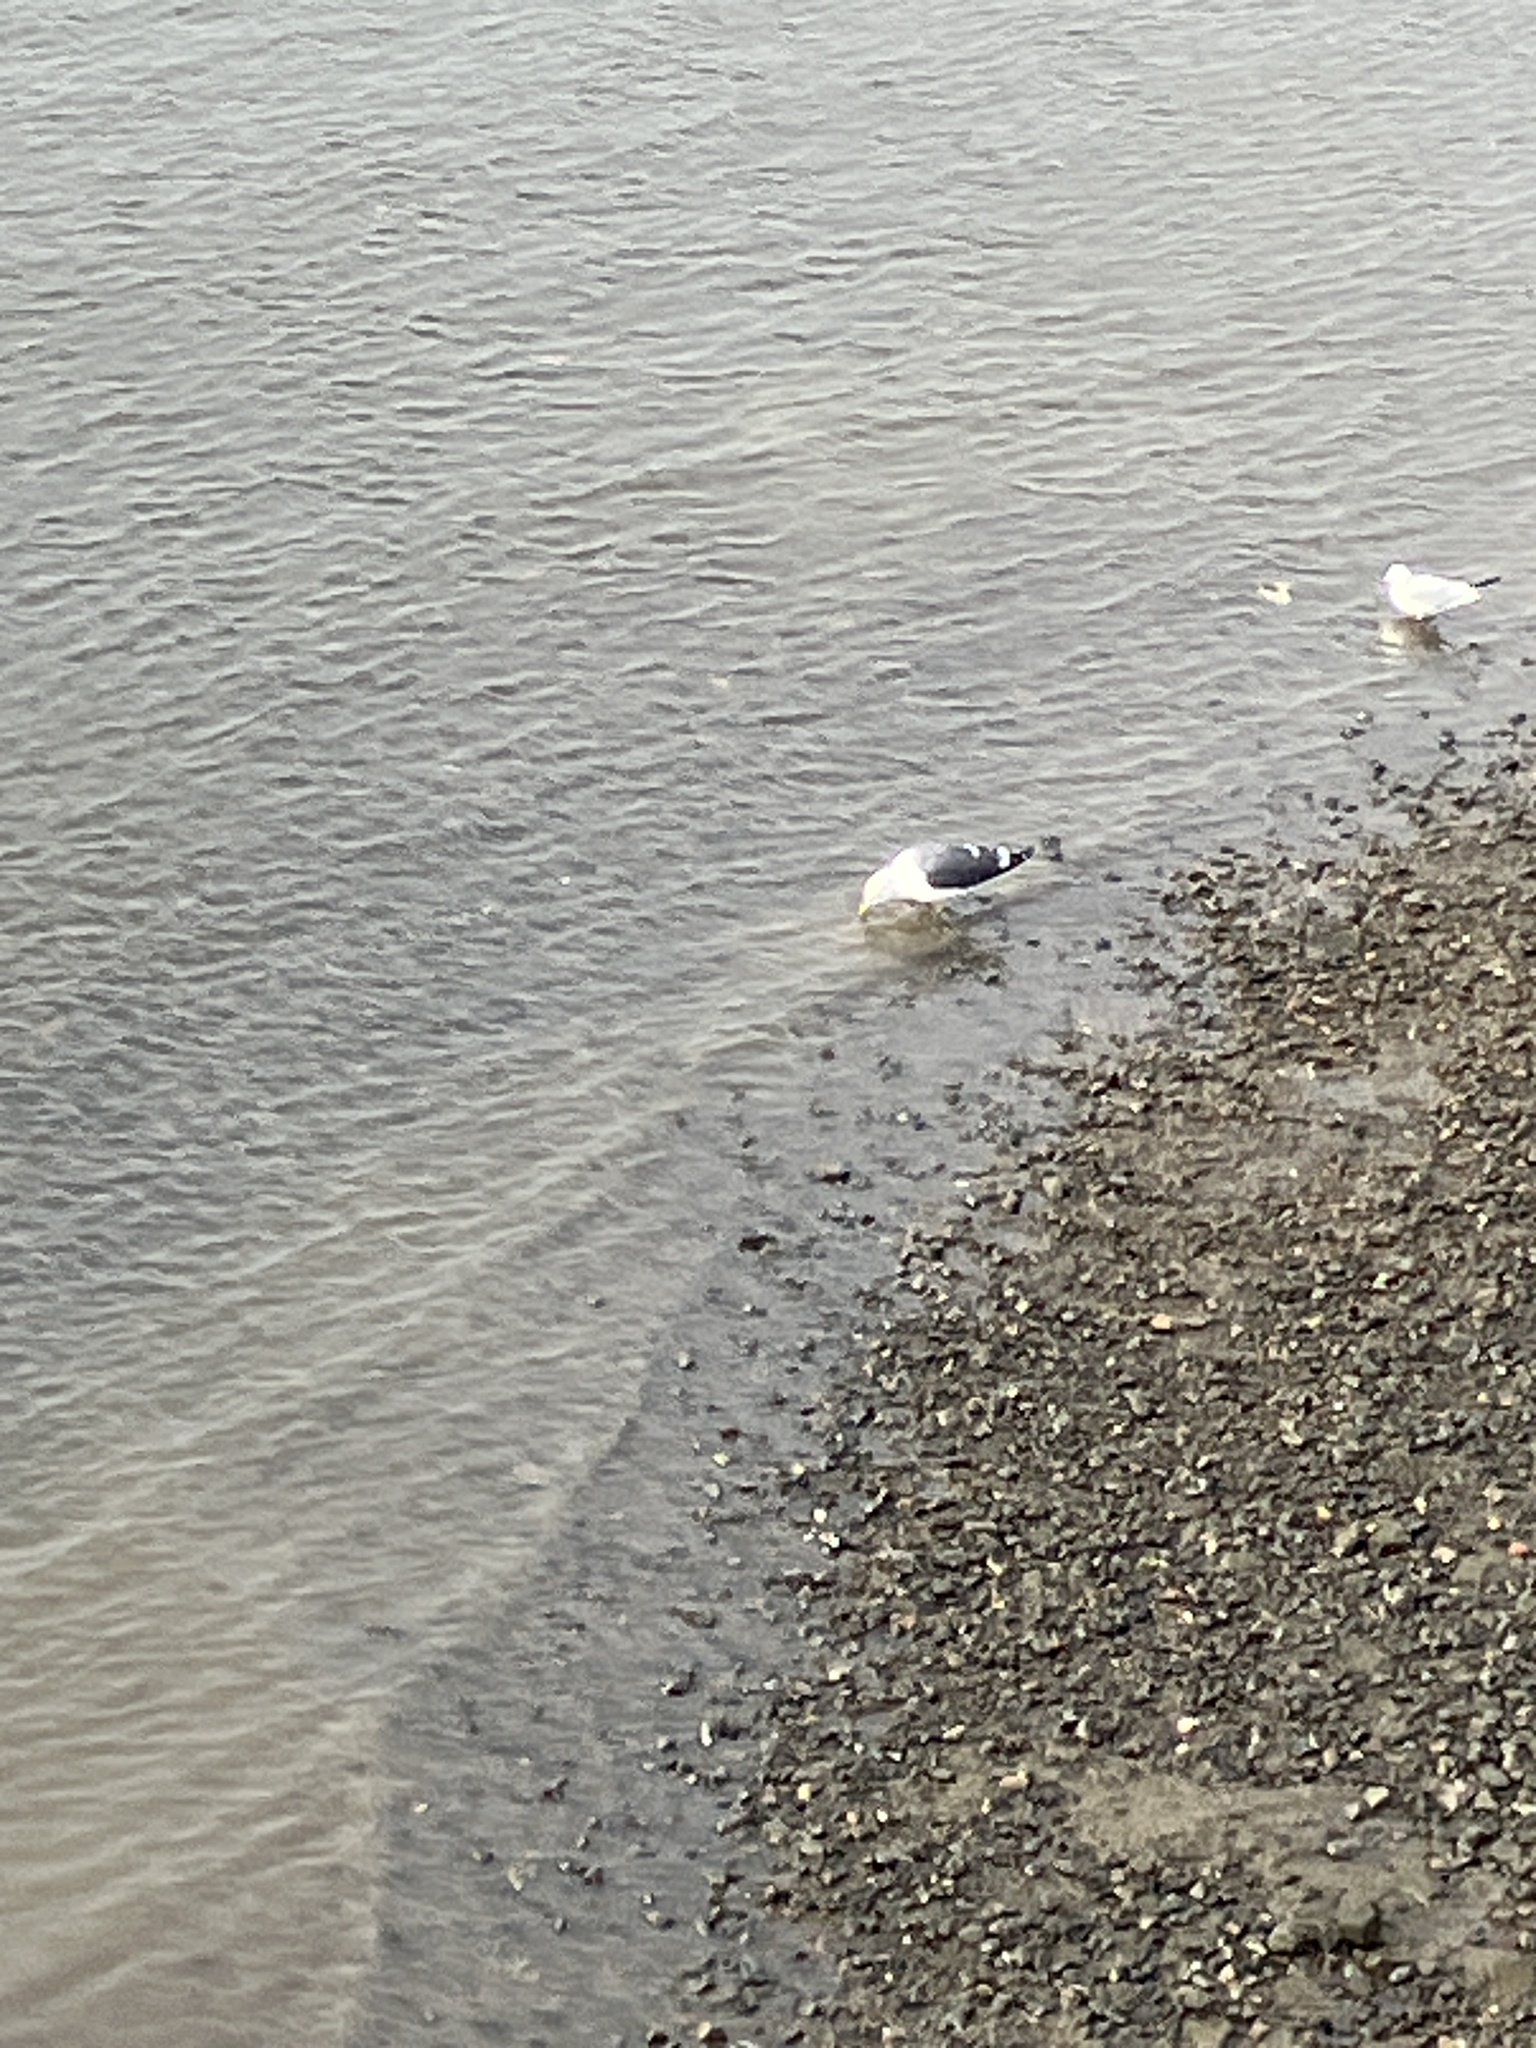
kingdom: Animalia
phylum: Chordata
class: Aves
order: Charadriiformes
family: Laridae
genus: Larus
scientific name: Larus fuscus
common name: Lesser black-backed gull
